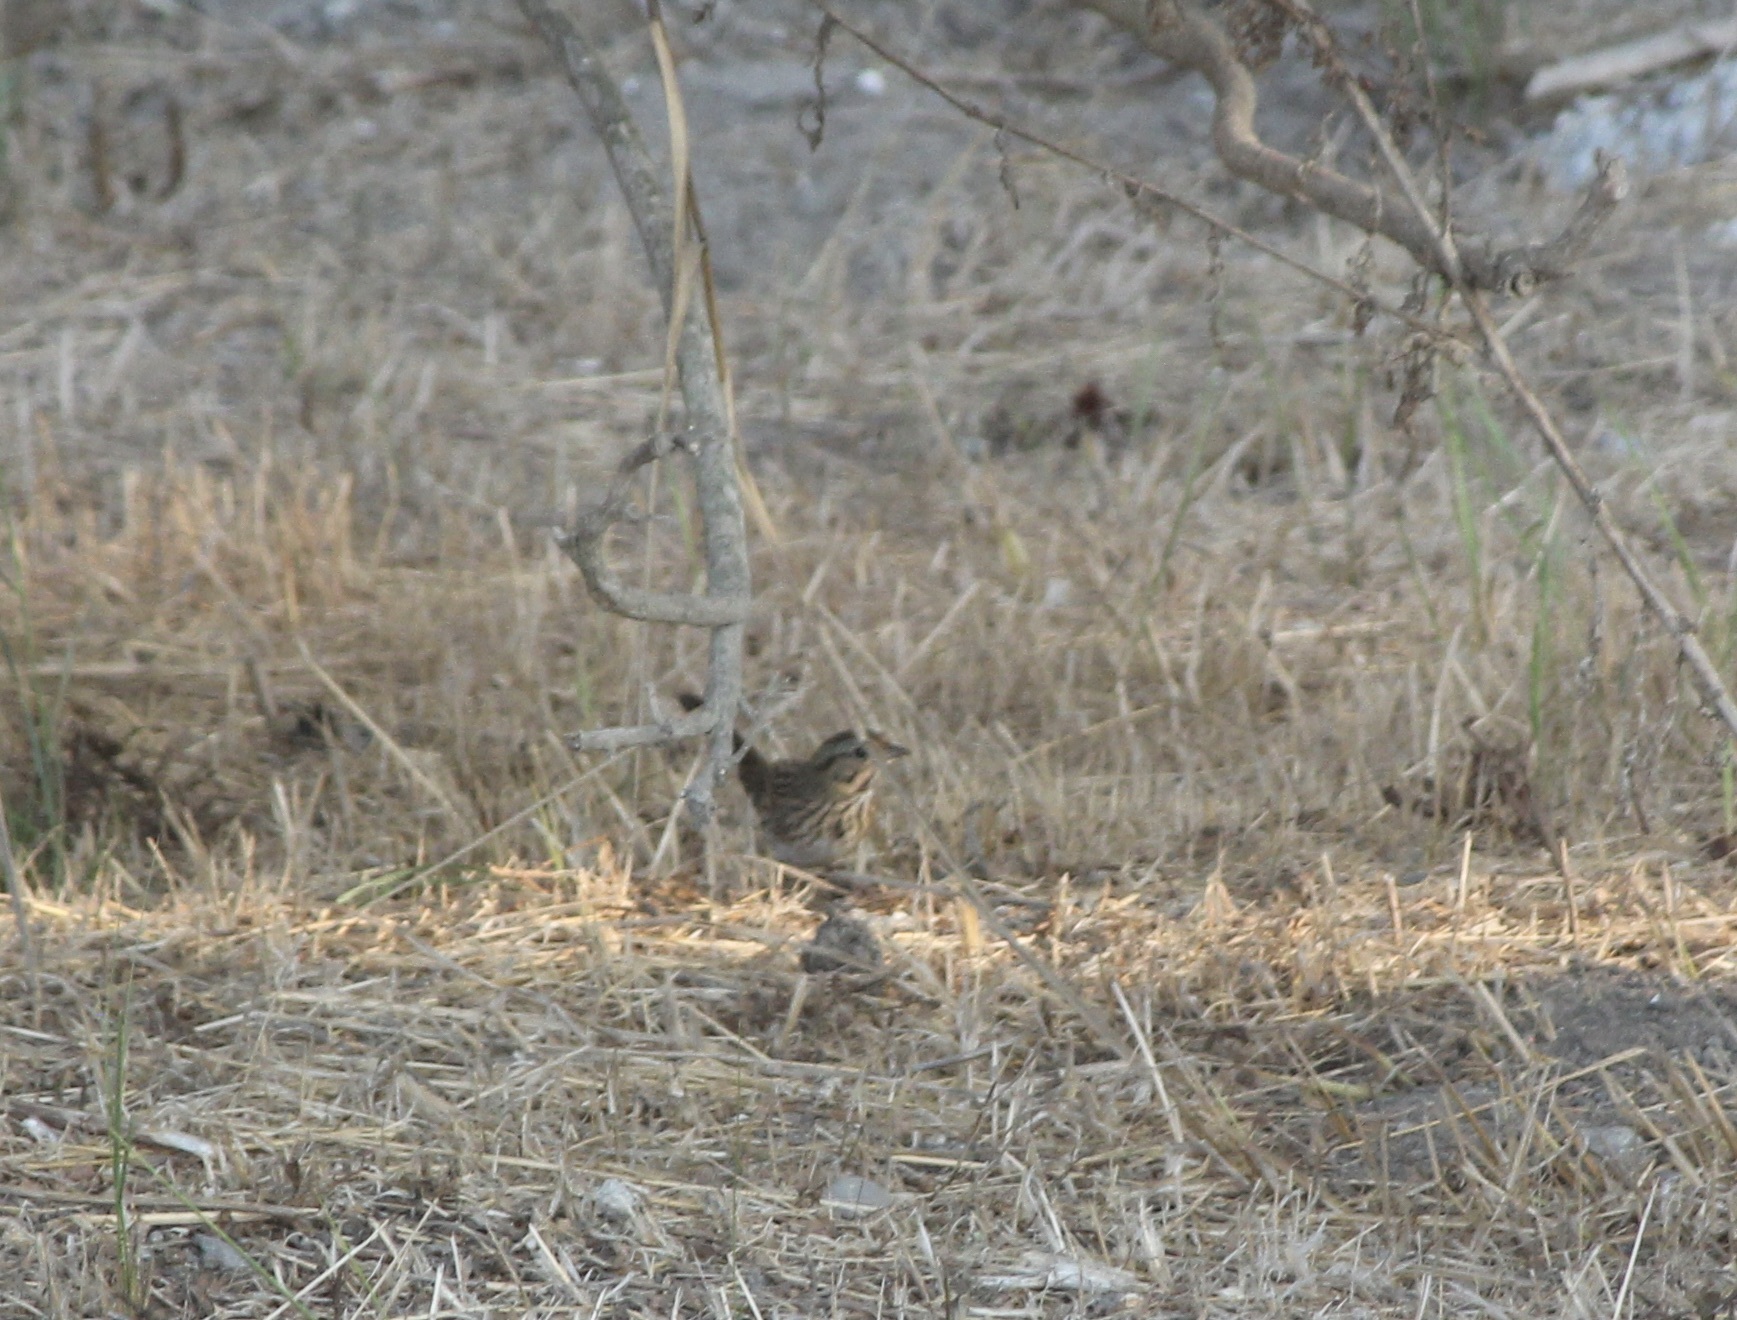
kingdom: Animalia
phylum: Chordata
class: Aves
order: Passeriformes
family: Passerellidae
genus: Melospiza
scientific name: Melospiza lincolnii
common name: Lincoln's sparrow
